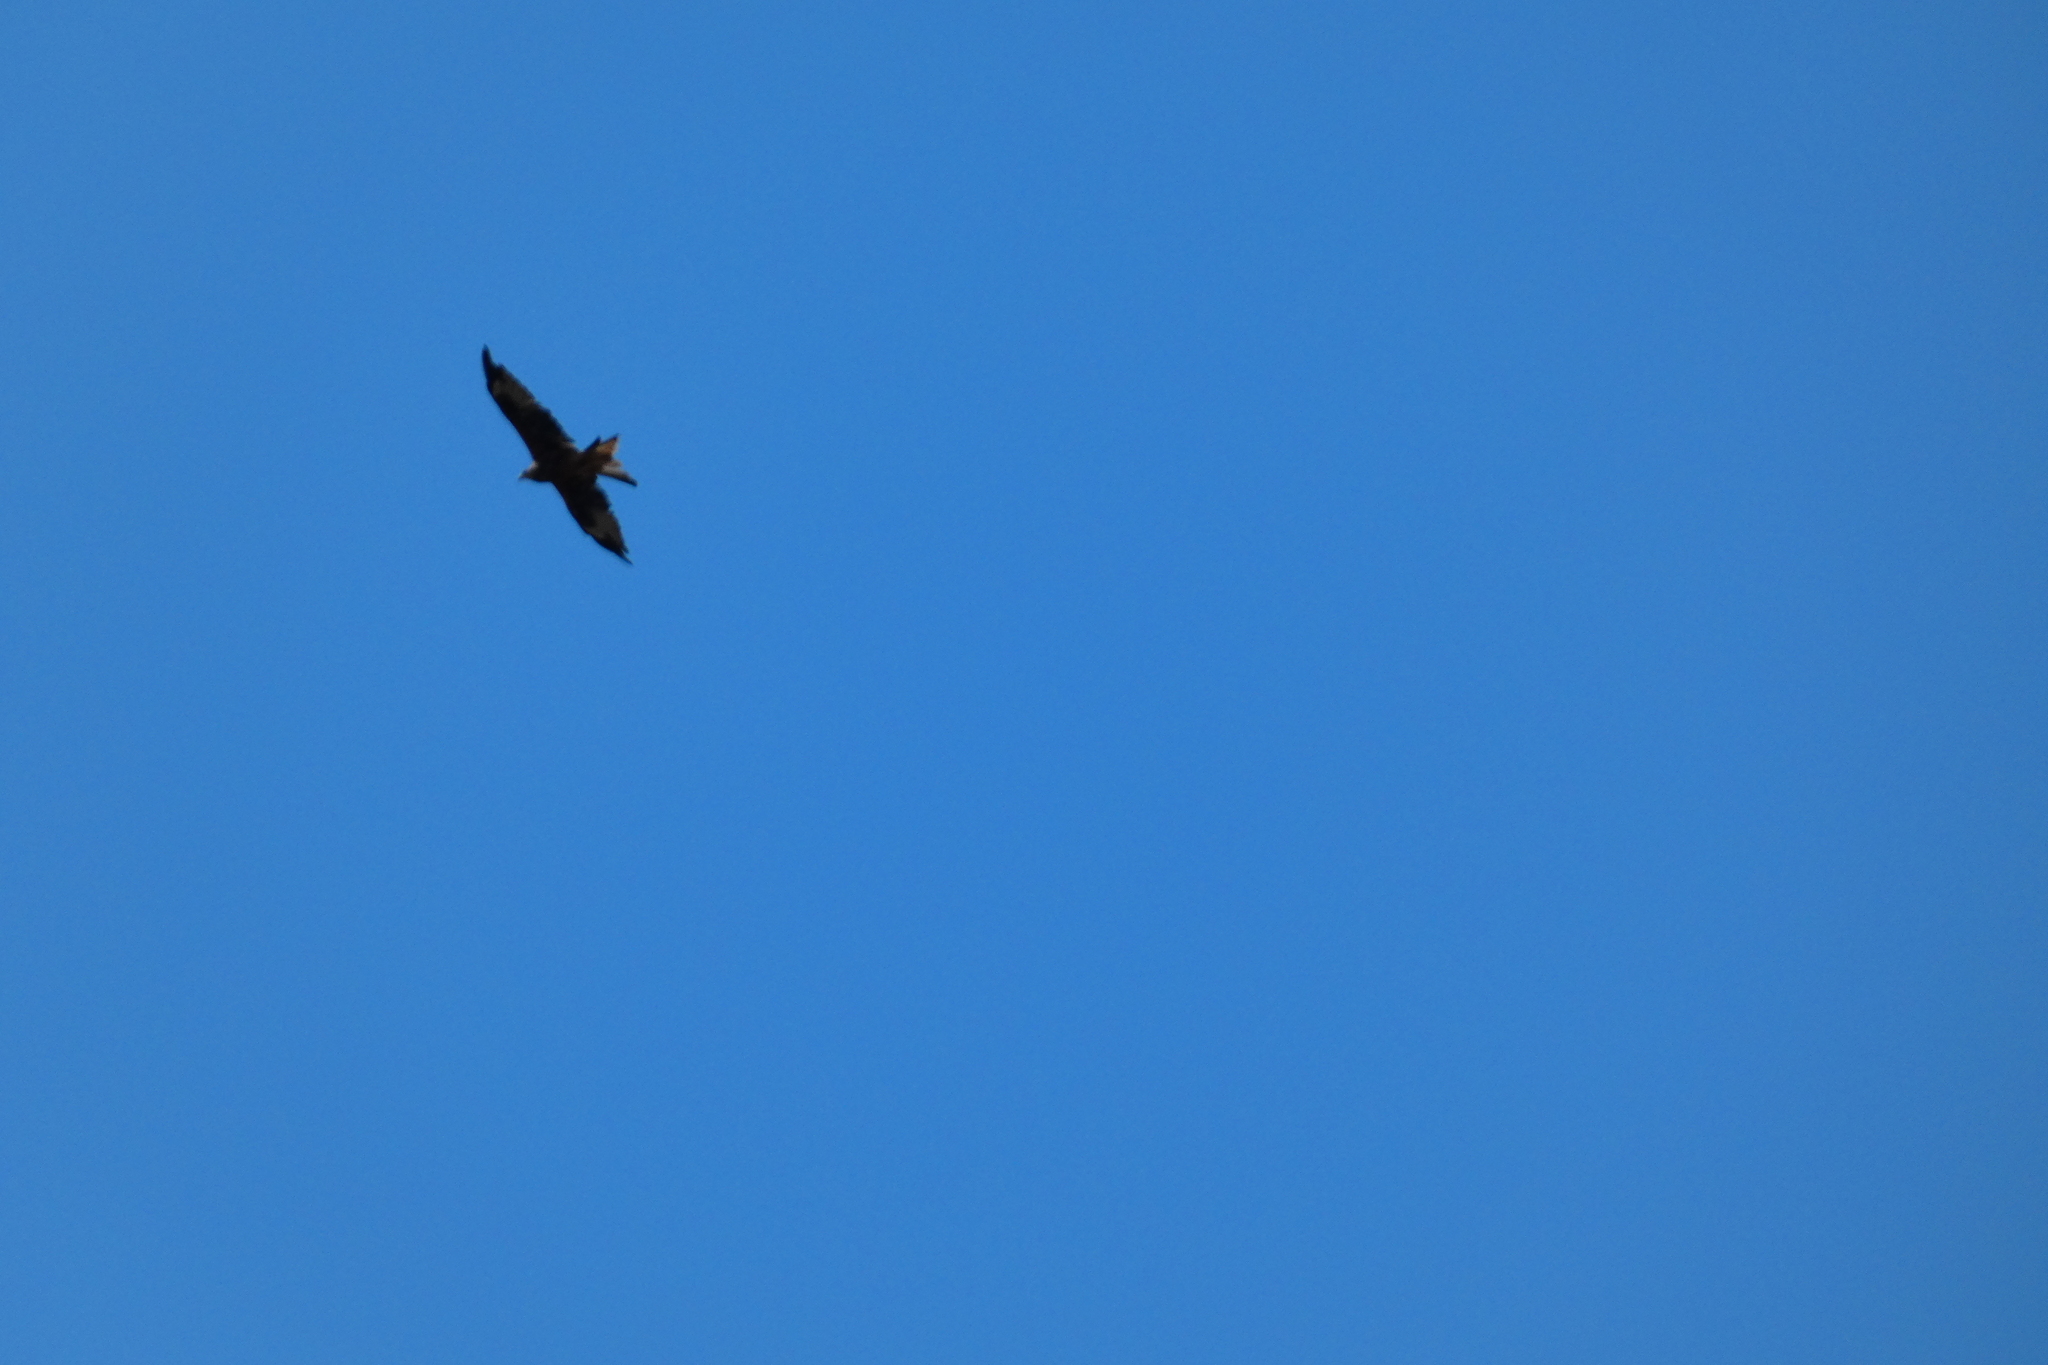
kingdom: Animalia
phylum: Chordata
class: Aves
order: Accipitriformes
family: Accipitridae
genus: Milvus
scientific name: Milvus milvus
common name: Red kite
